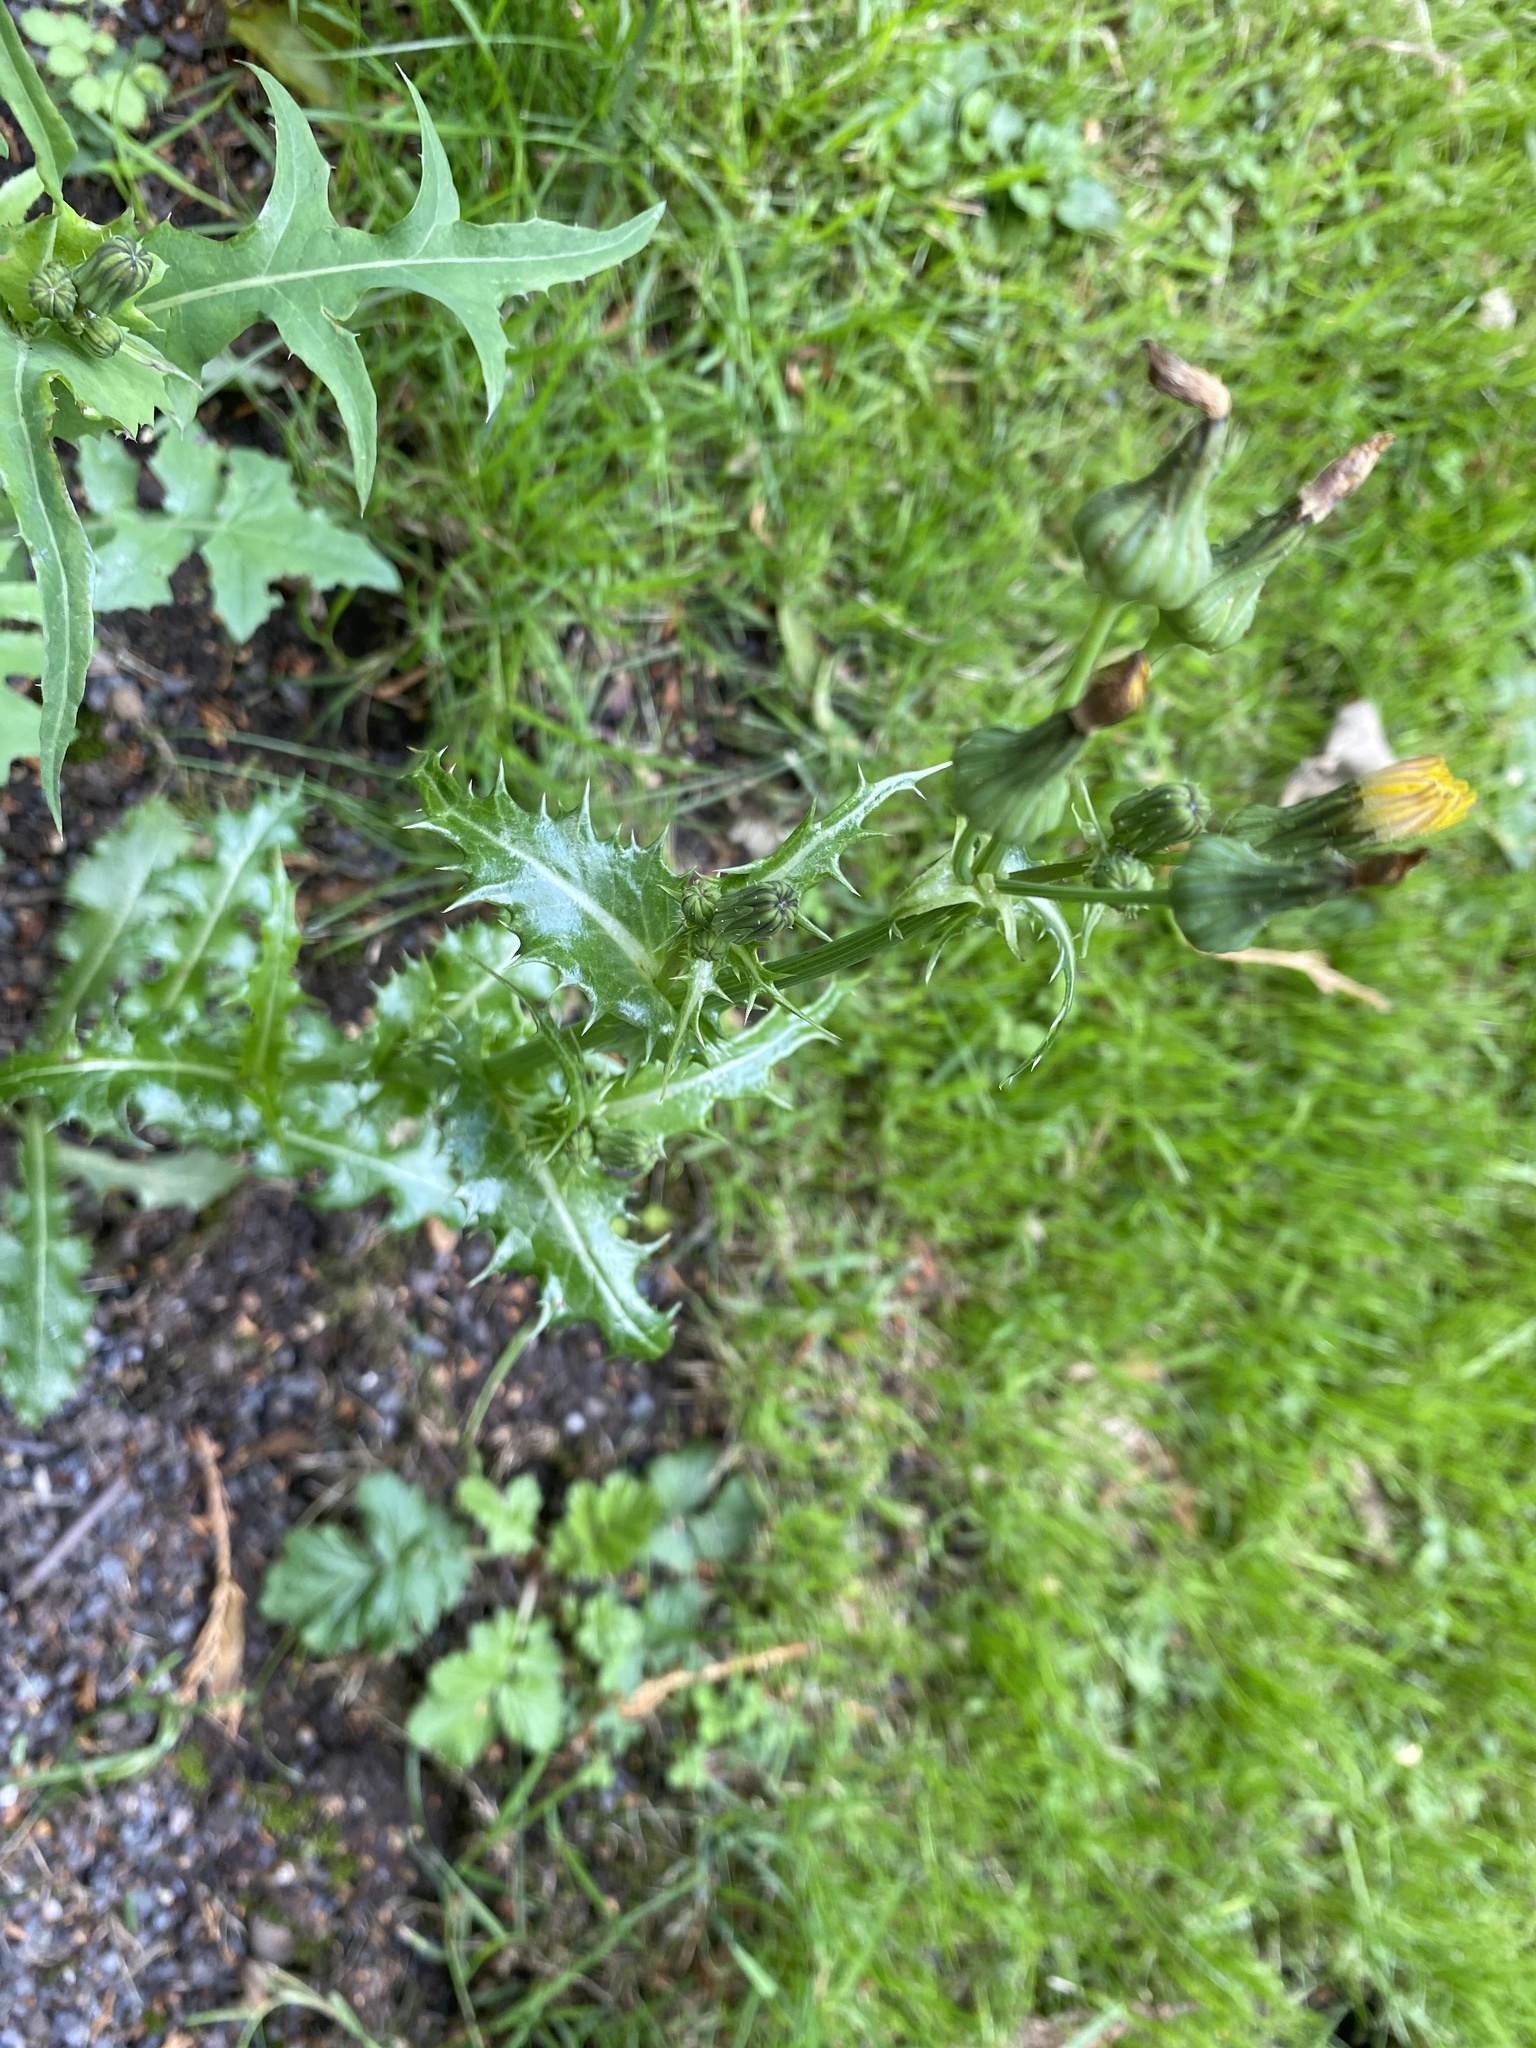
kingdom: Plantae
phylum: Tracheophyta
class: Magnoliopsida
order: Asterales
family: Asteraceae
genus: Sonchus
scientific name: Sonchus asper
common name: Prickly sow-thistle
